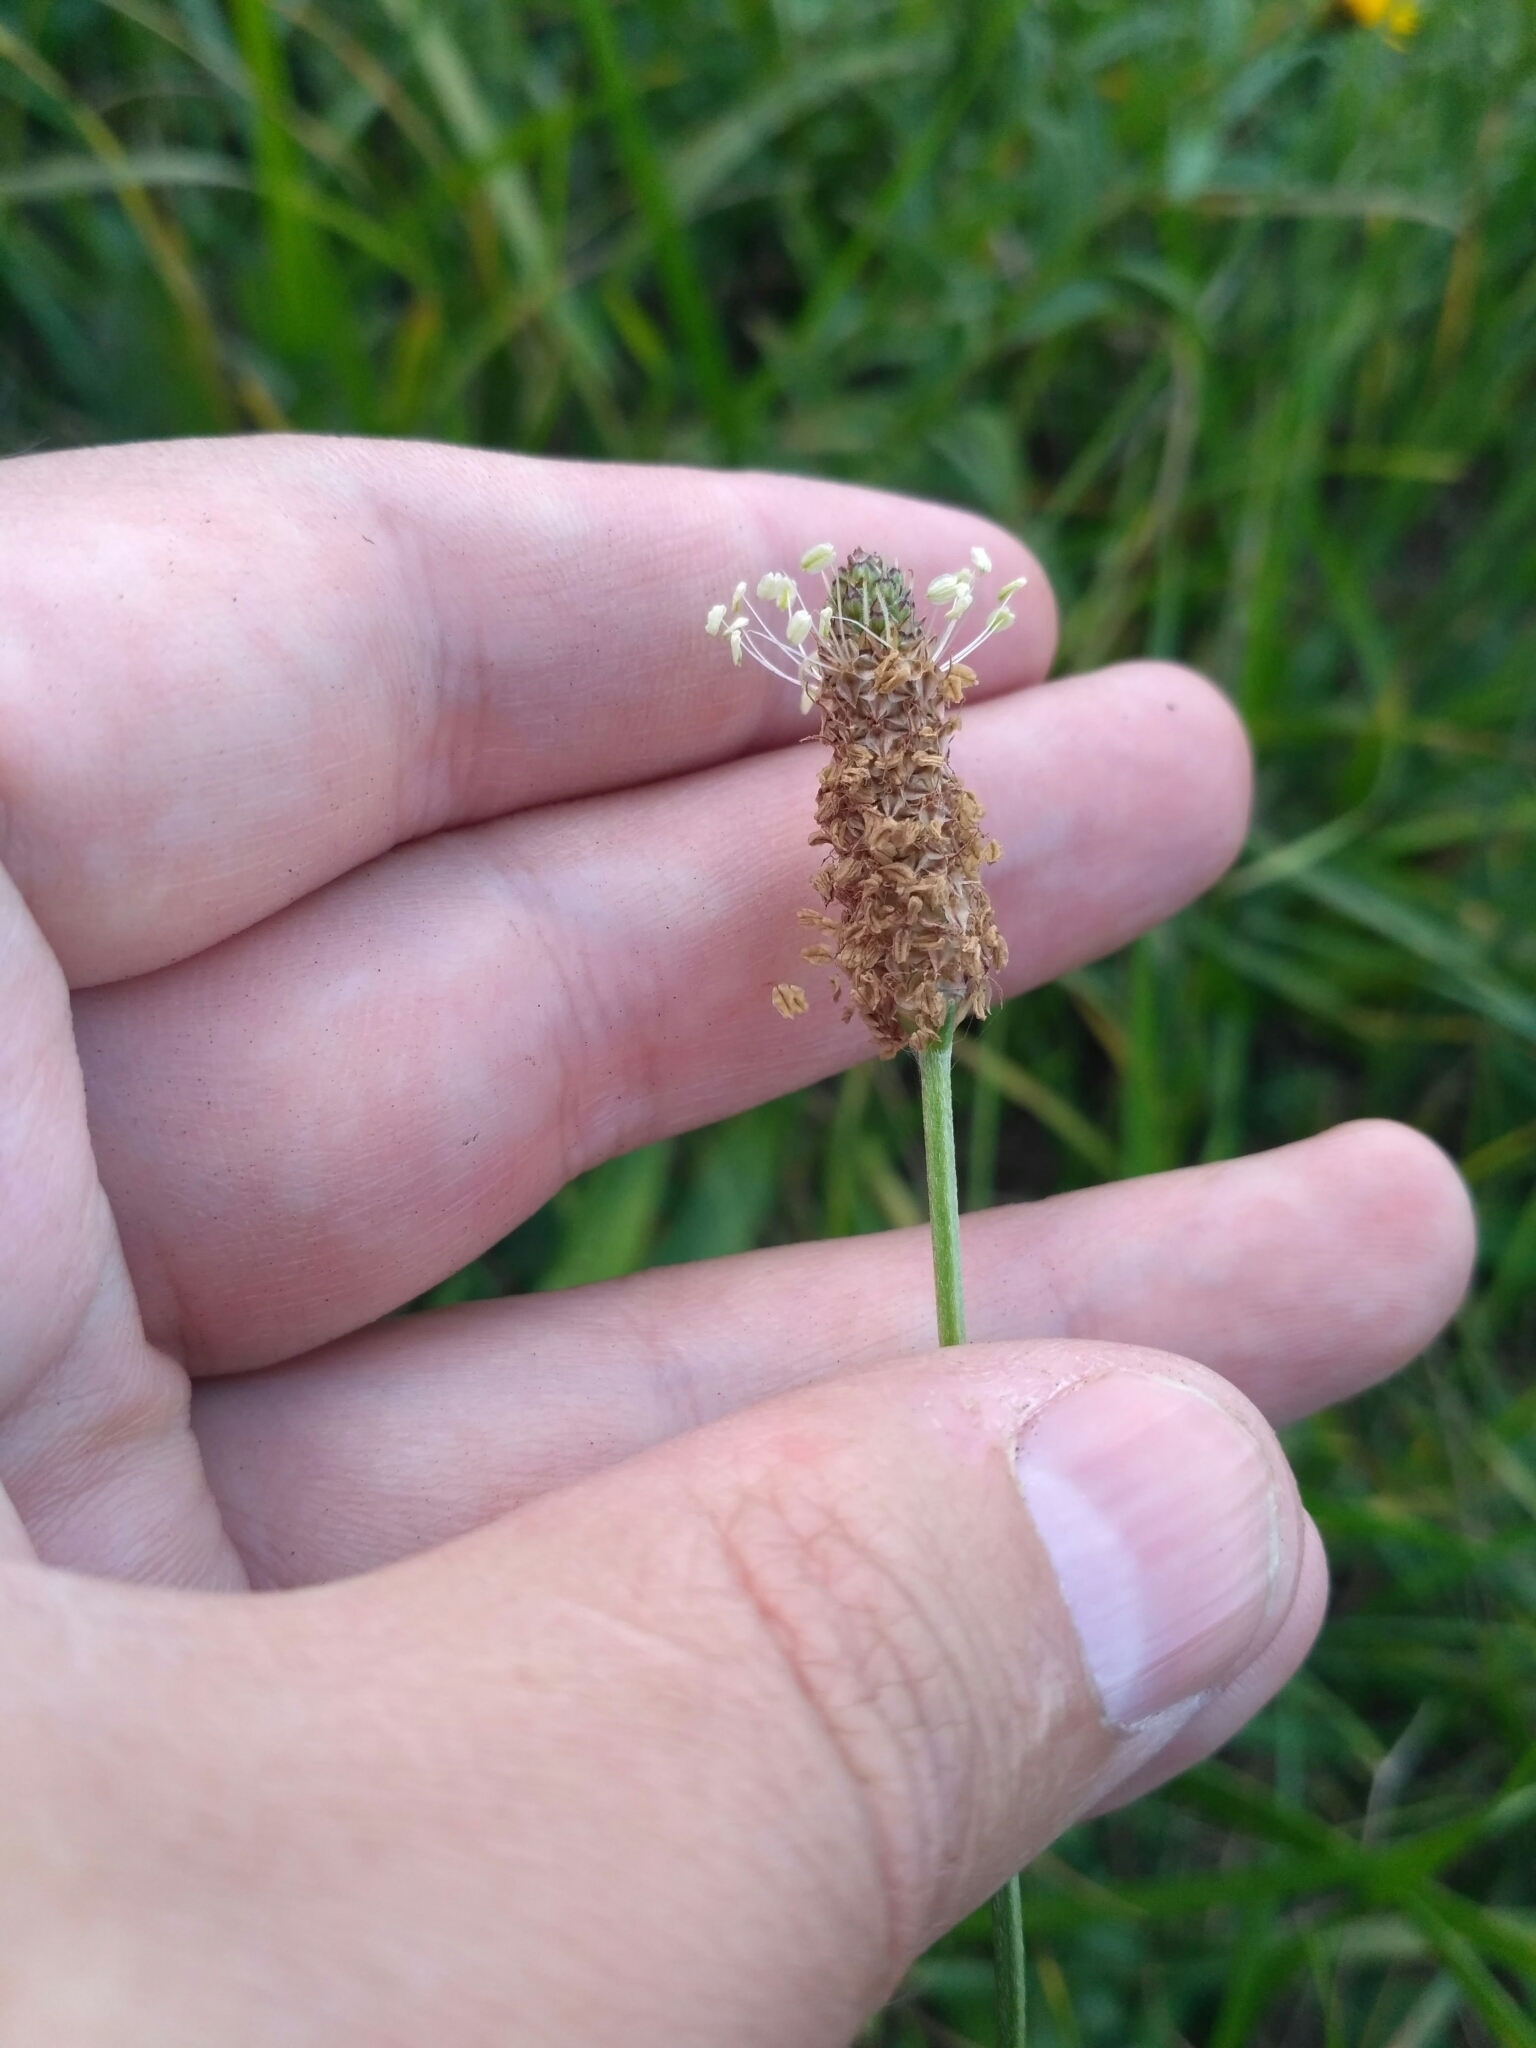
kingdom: Plantae
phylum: Tracheophyta
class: Magnoliopsida
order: Lamiales
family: Plantaginaceae
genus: Plantago
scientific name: Plantago lanceolata
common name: Ribwort plantain
